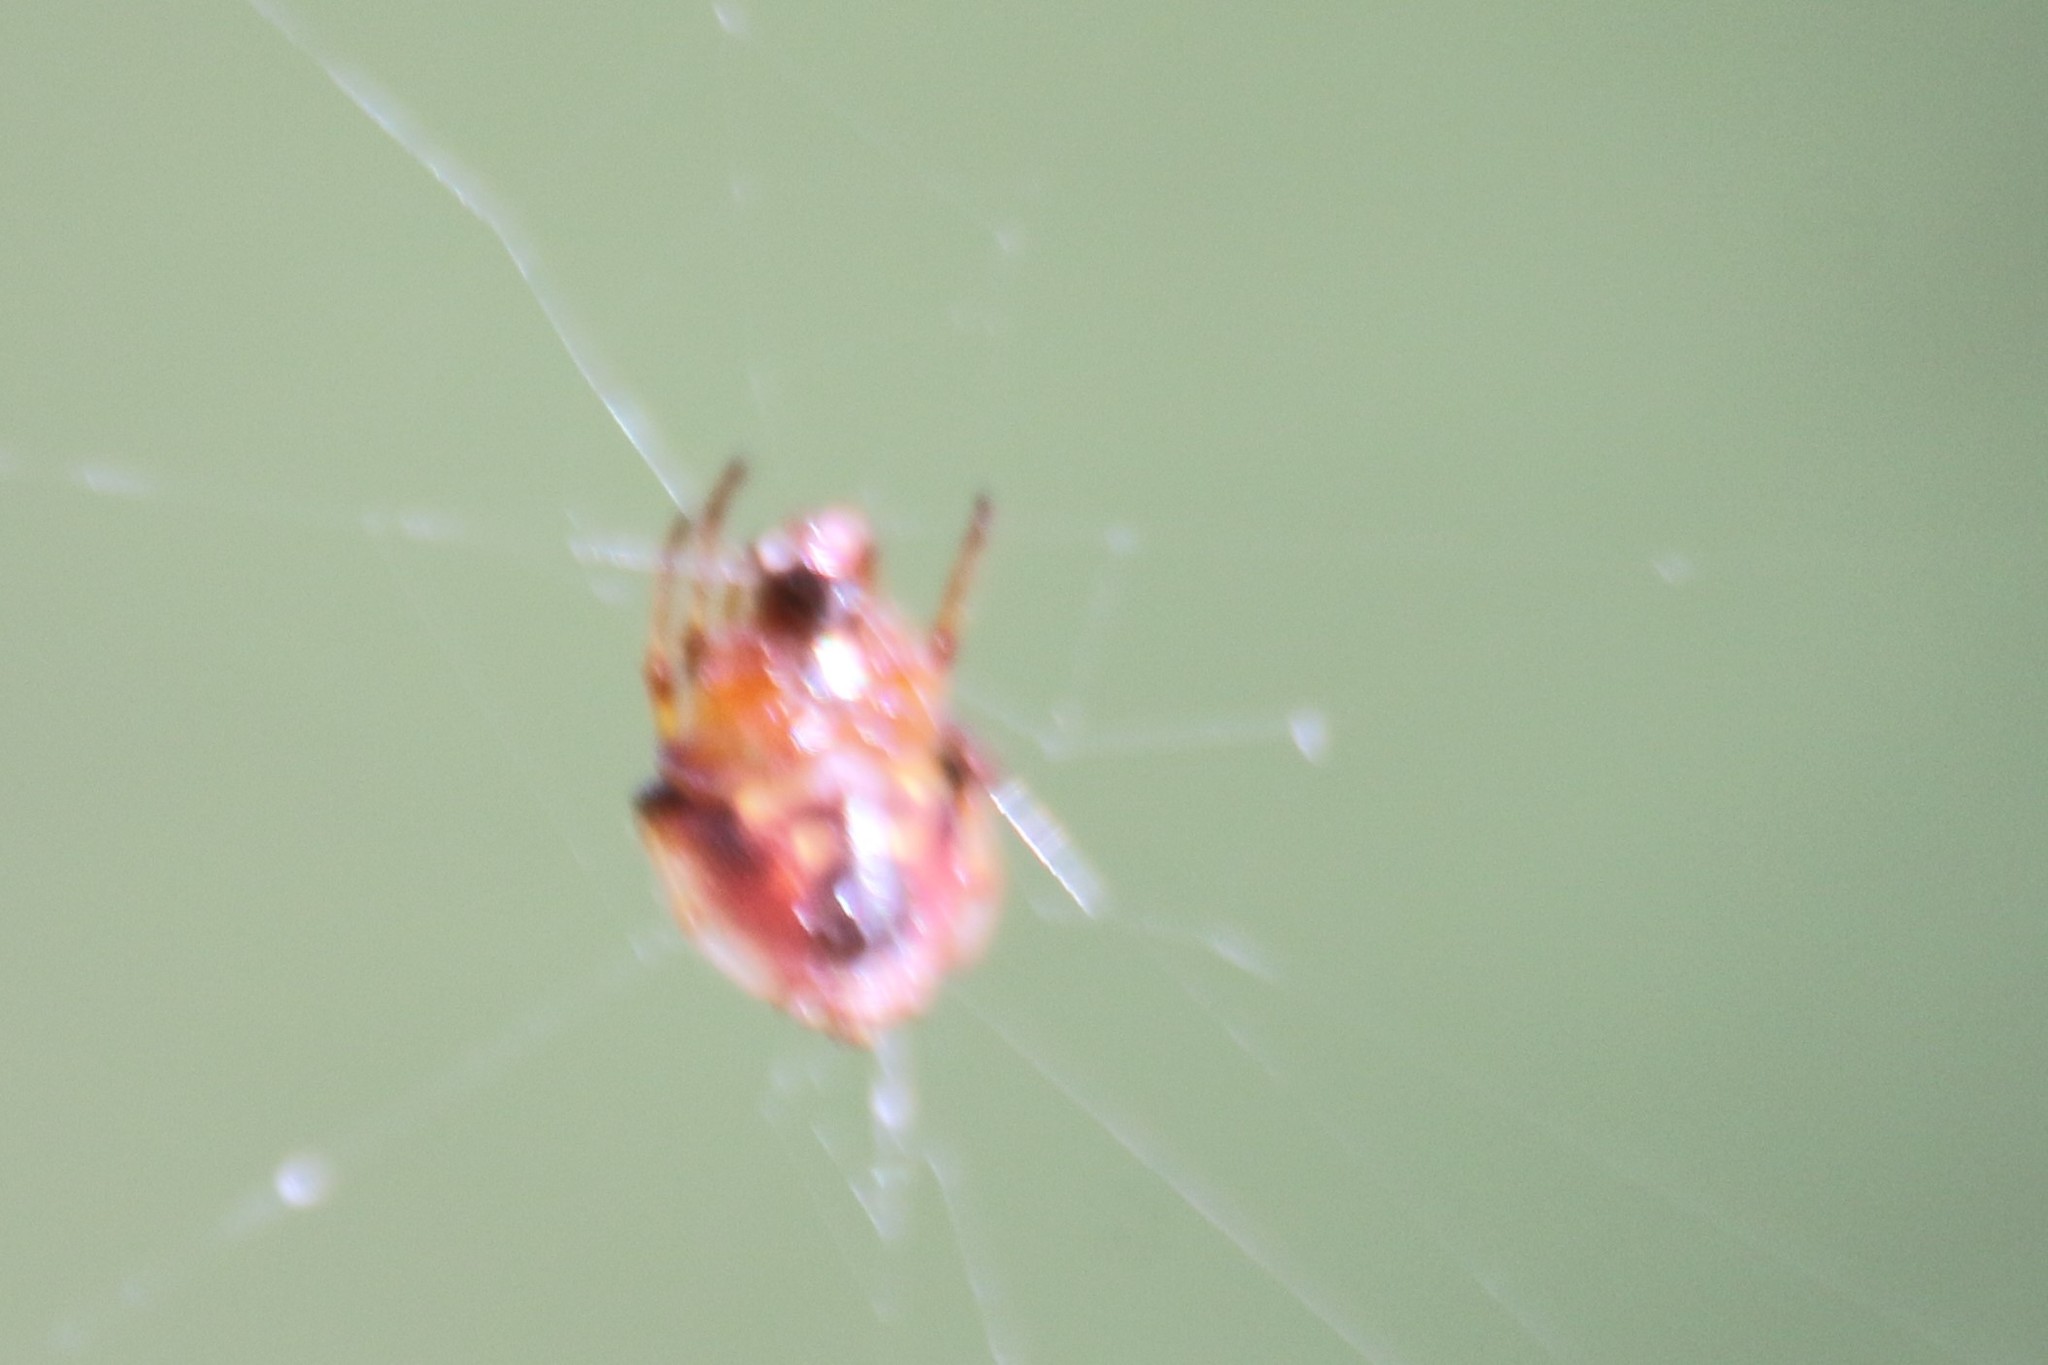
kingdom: Animalia
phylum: Arthropoda
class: Arachnida
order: Araneae
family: Araneidae
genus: Verrucosa
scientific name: Verrucosa arenata
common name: Orb weavers
